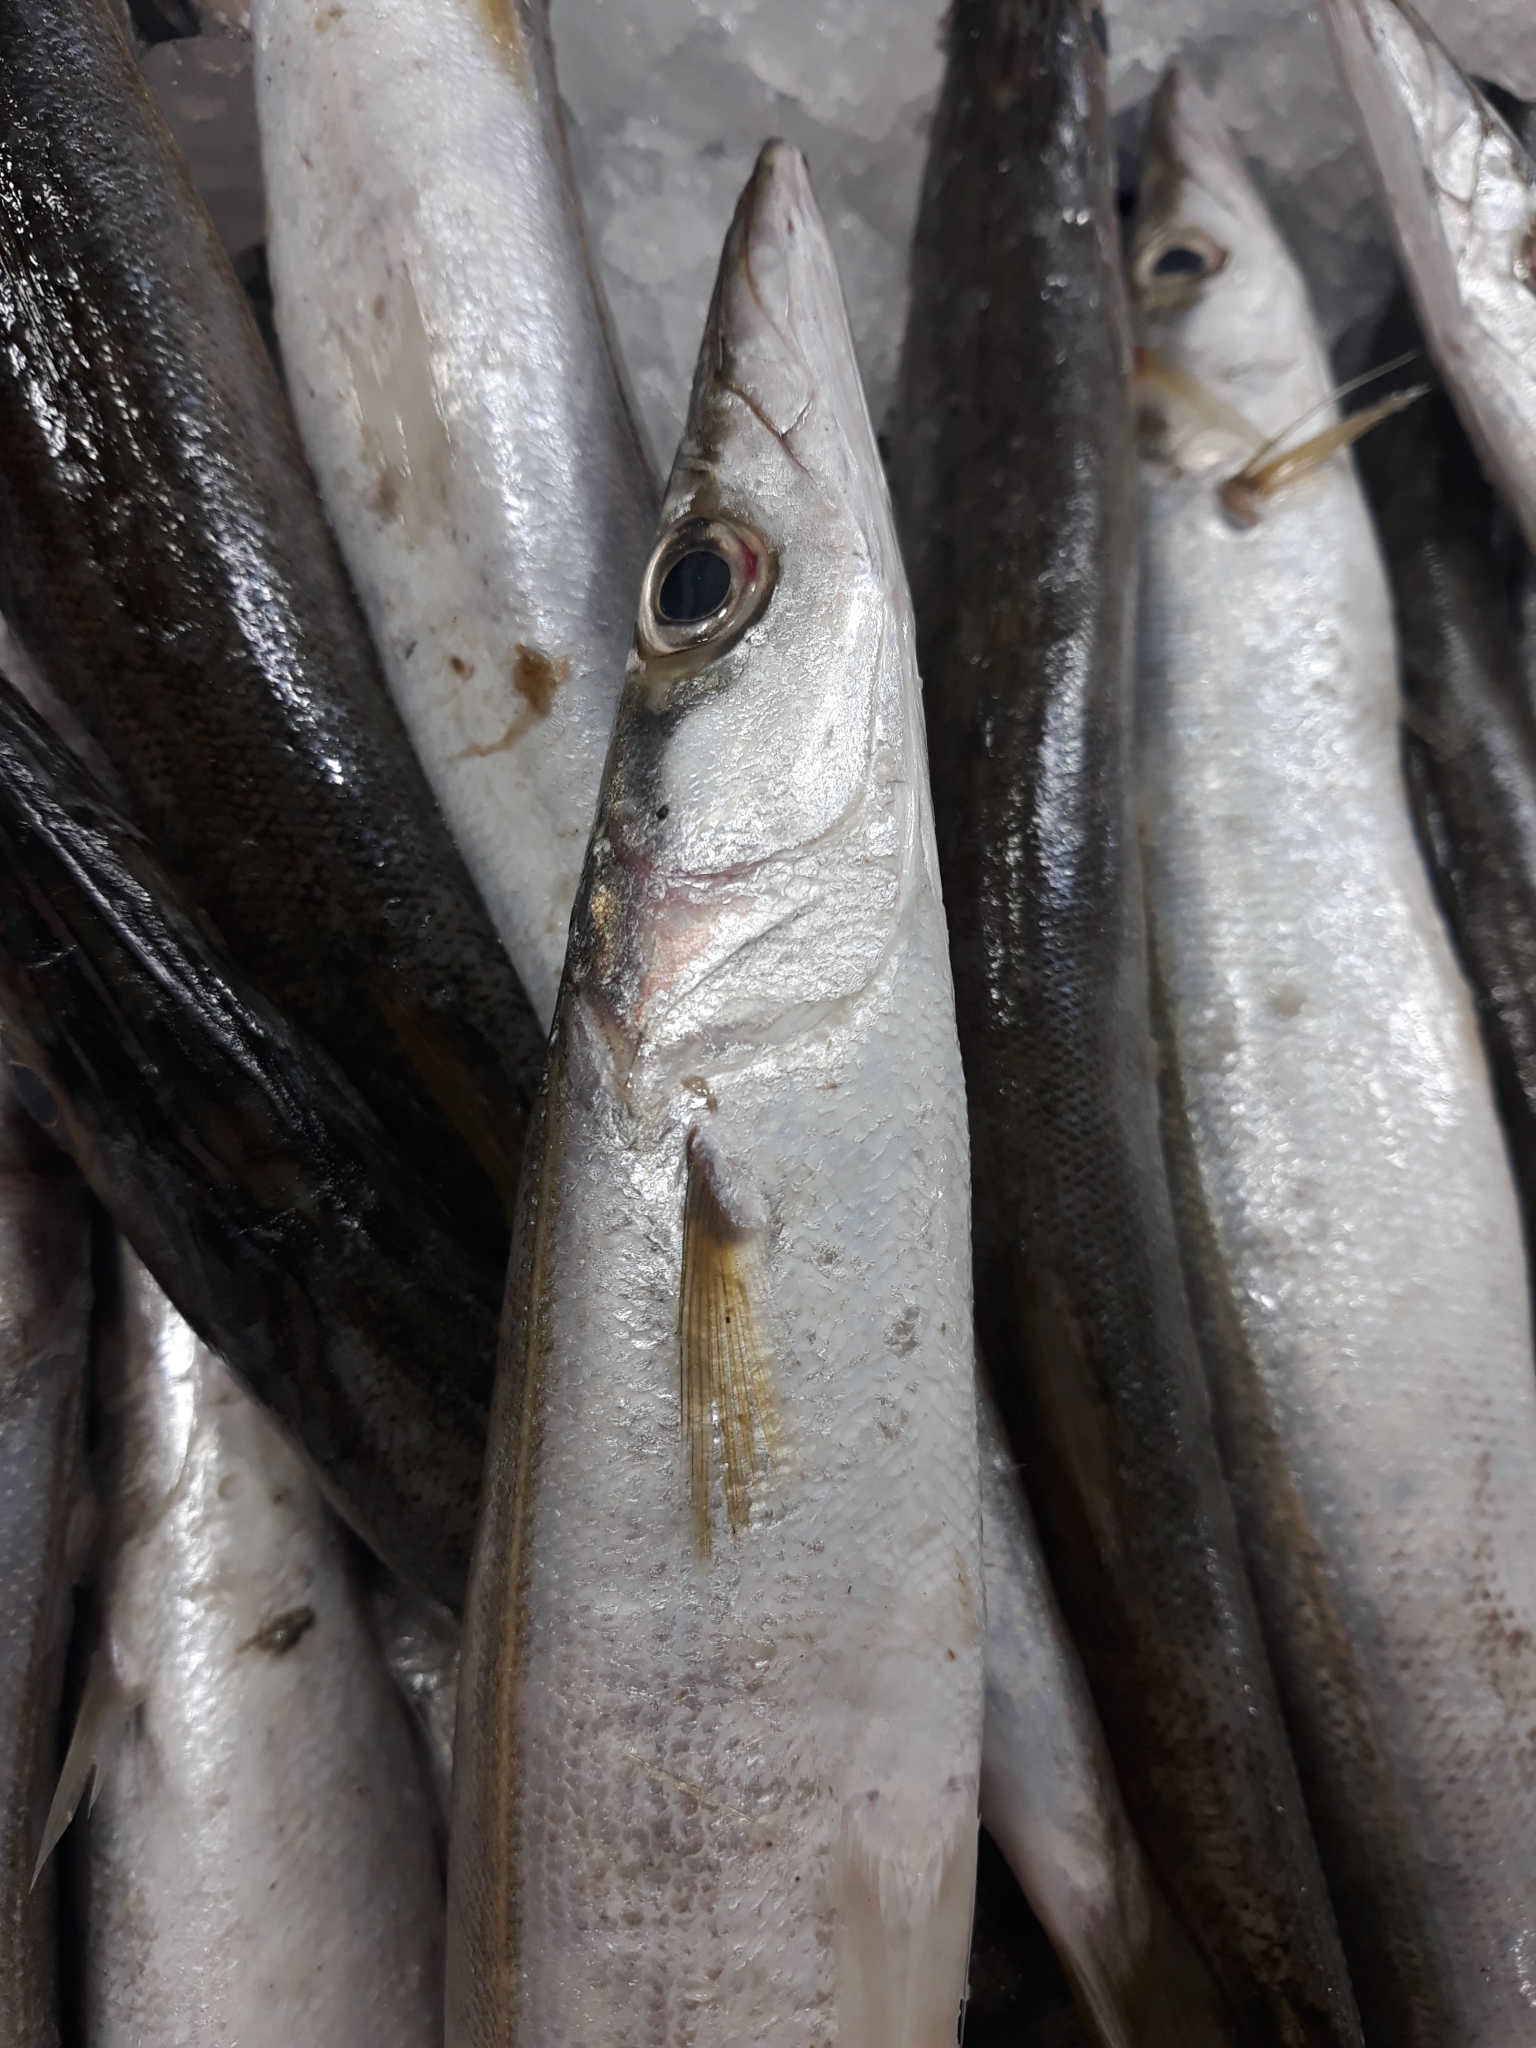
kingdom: Animalia
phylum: Chordata
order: Perciformes
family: Sphyraenidae
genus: Sphyraena
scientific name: Sphyraena sphyraena
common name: European barracuda
